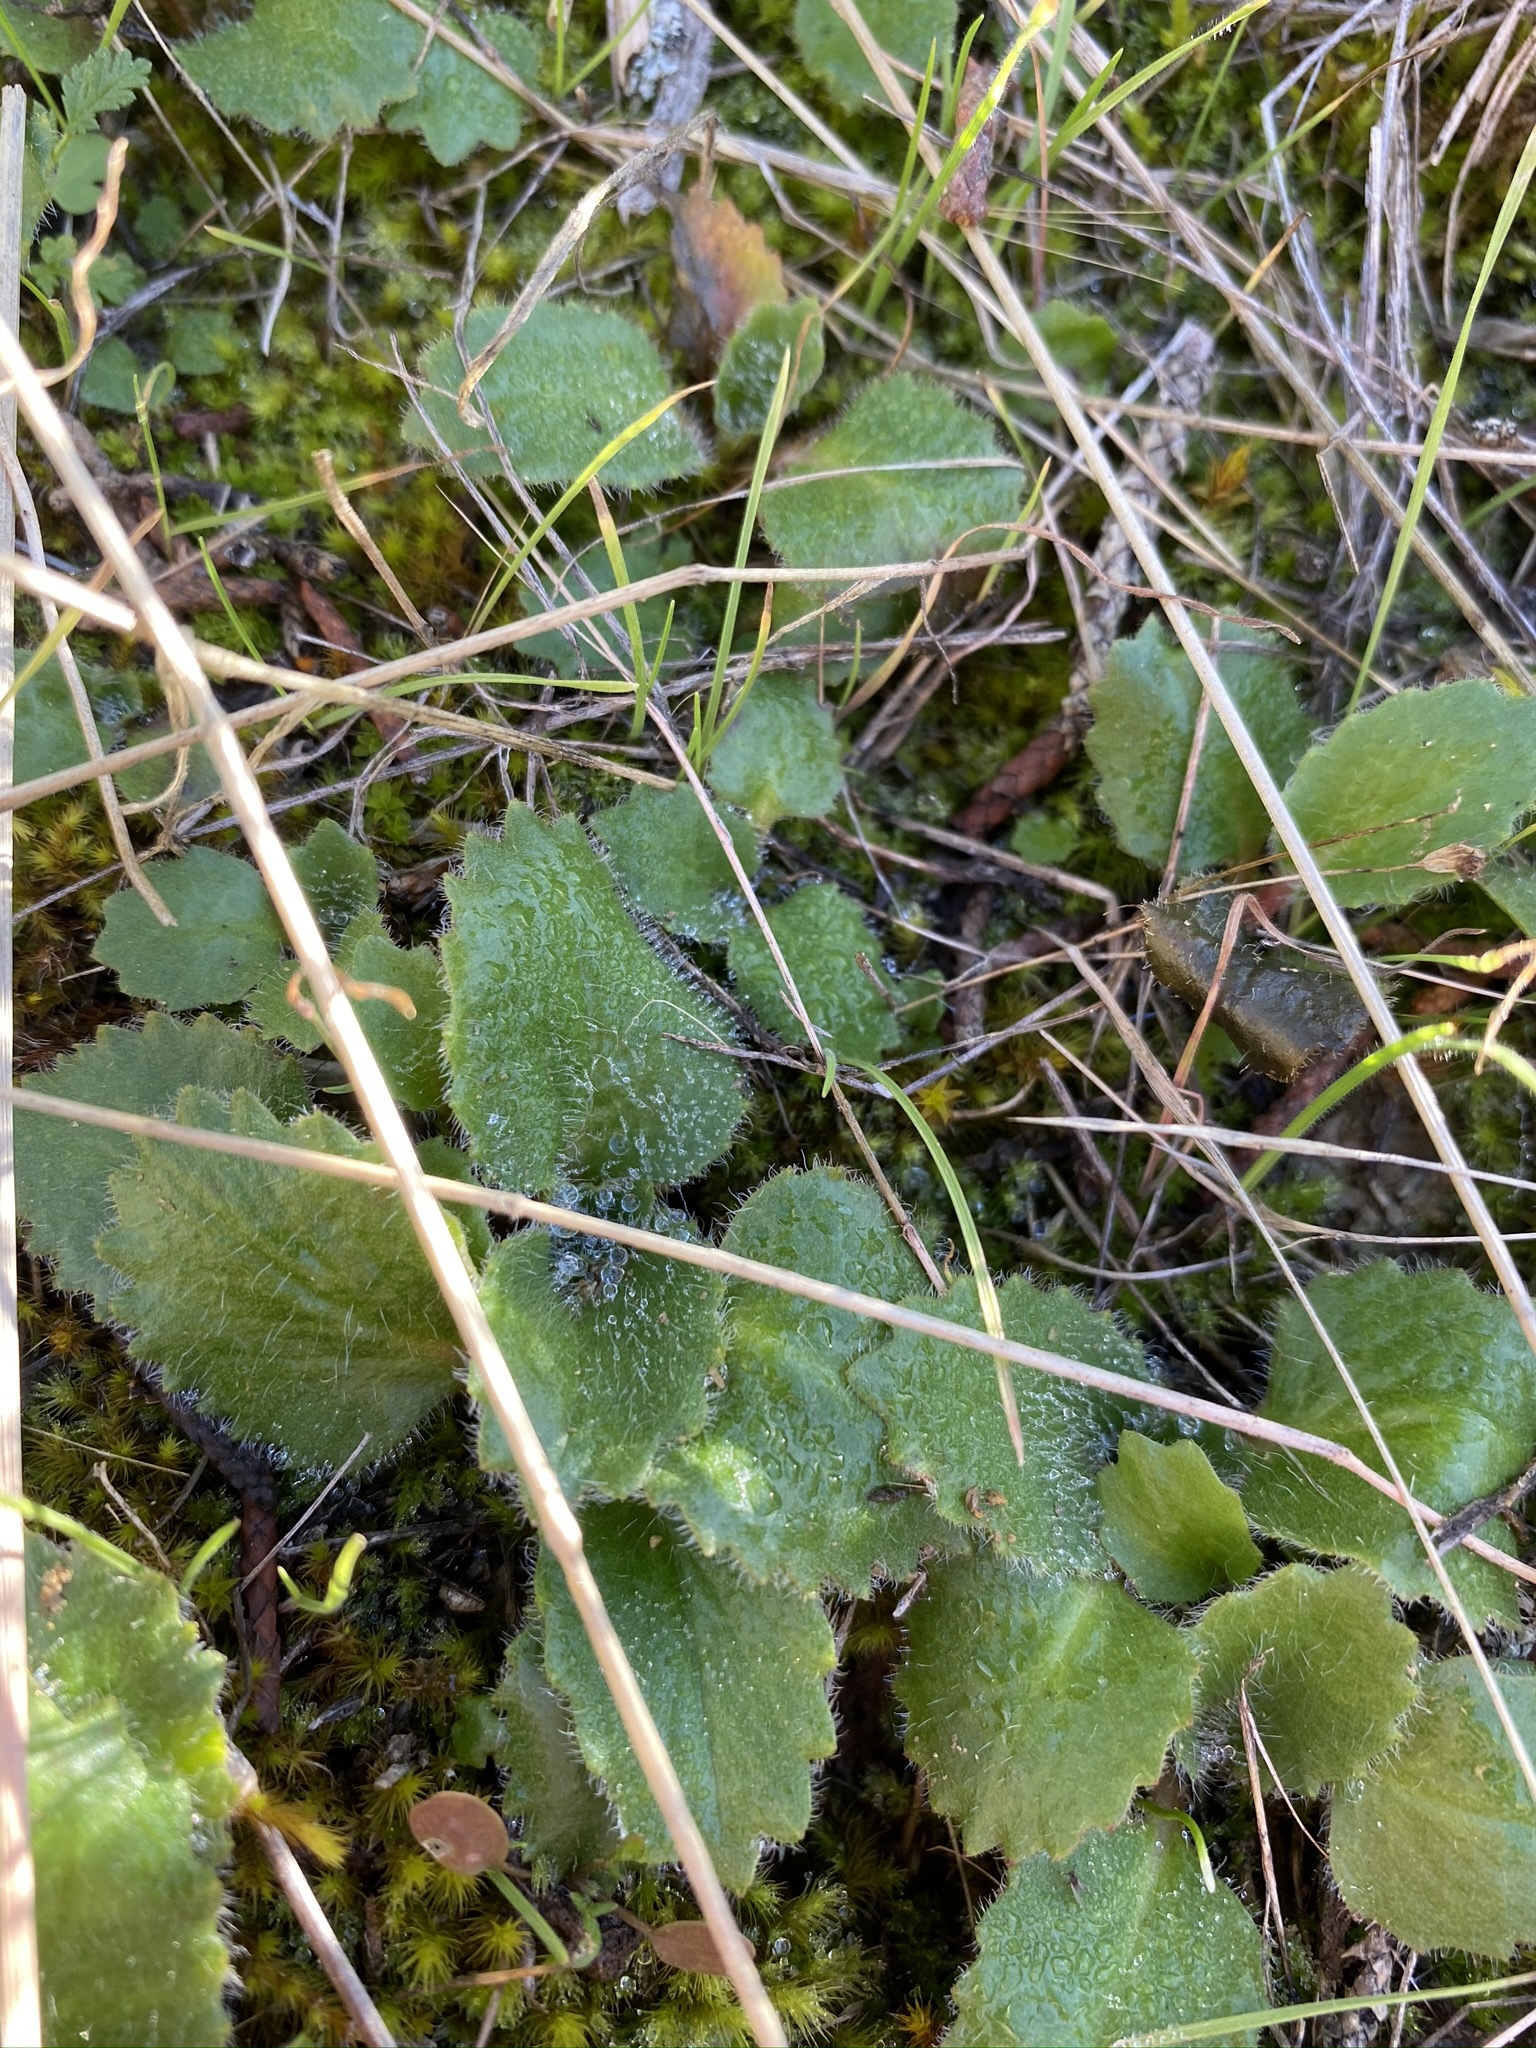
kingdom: Plantae
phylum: Tracheophyta
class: Magnoliopsida
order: Saxifragales
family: Saxifragaceae
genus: Micranthes
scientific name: Micranthes californica
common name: California saxifrage
